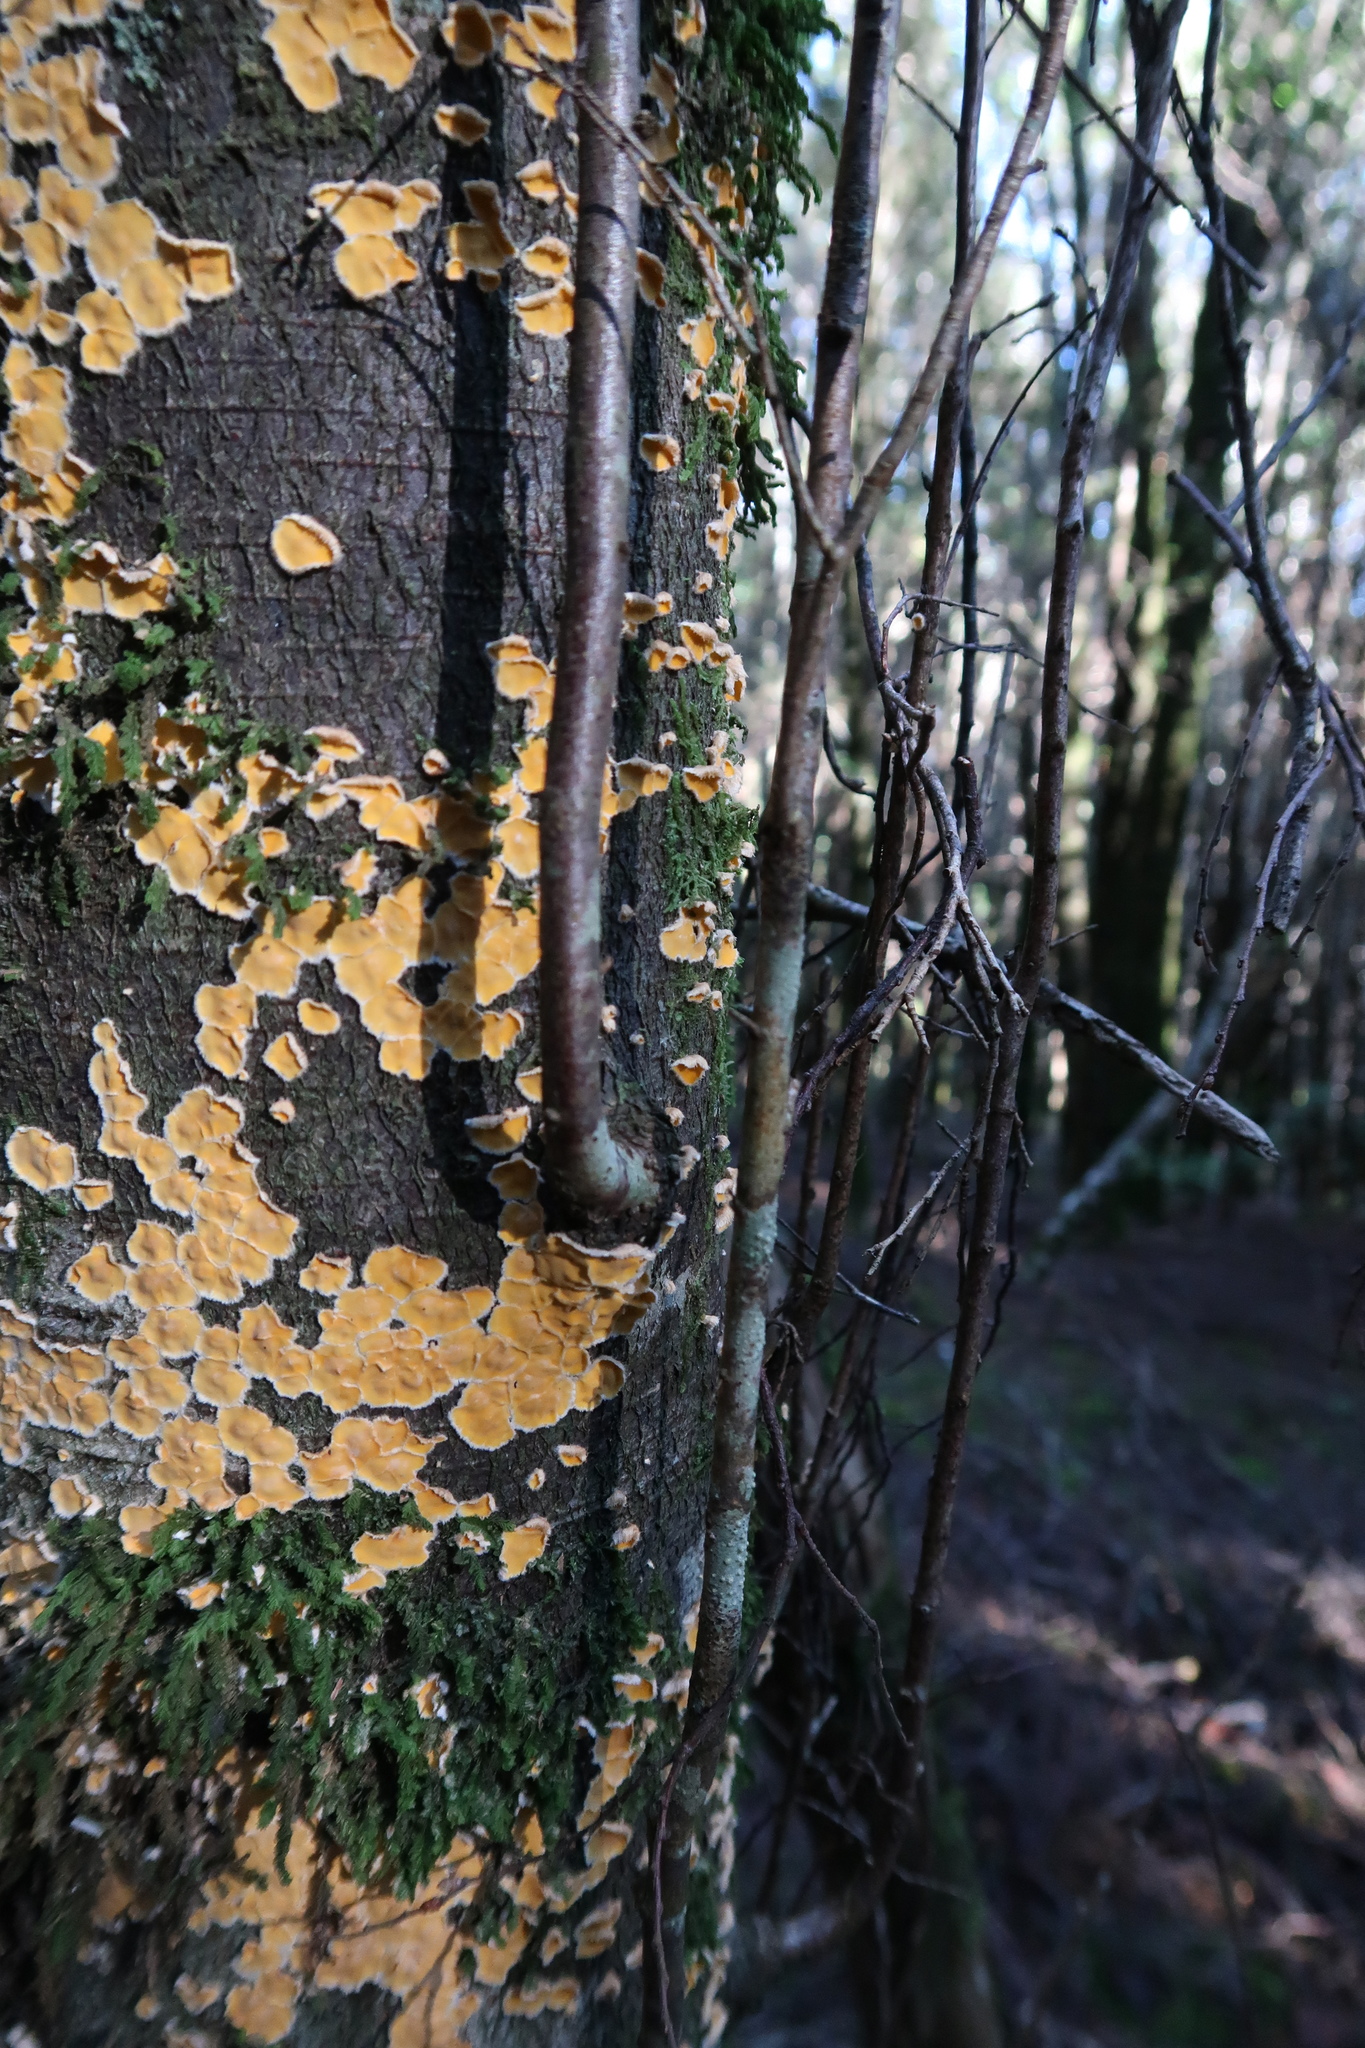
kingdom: Fungi
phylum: Basidiomycota
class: Agaricomycetes
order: Russulales
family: Stereaceae
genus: Stereodiscus
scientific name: Stereodiscus limonisporus
